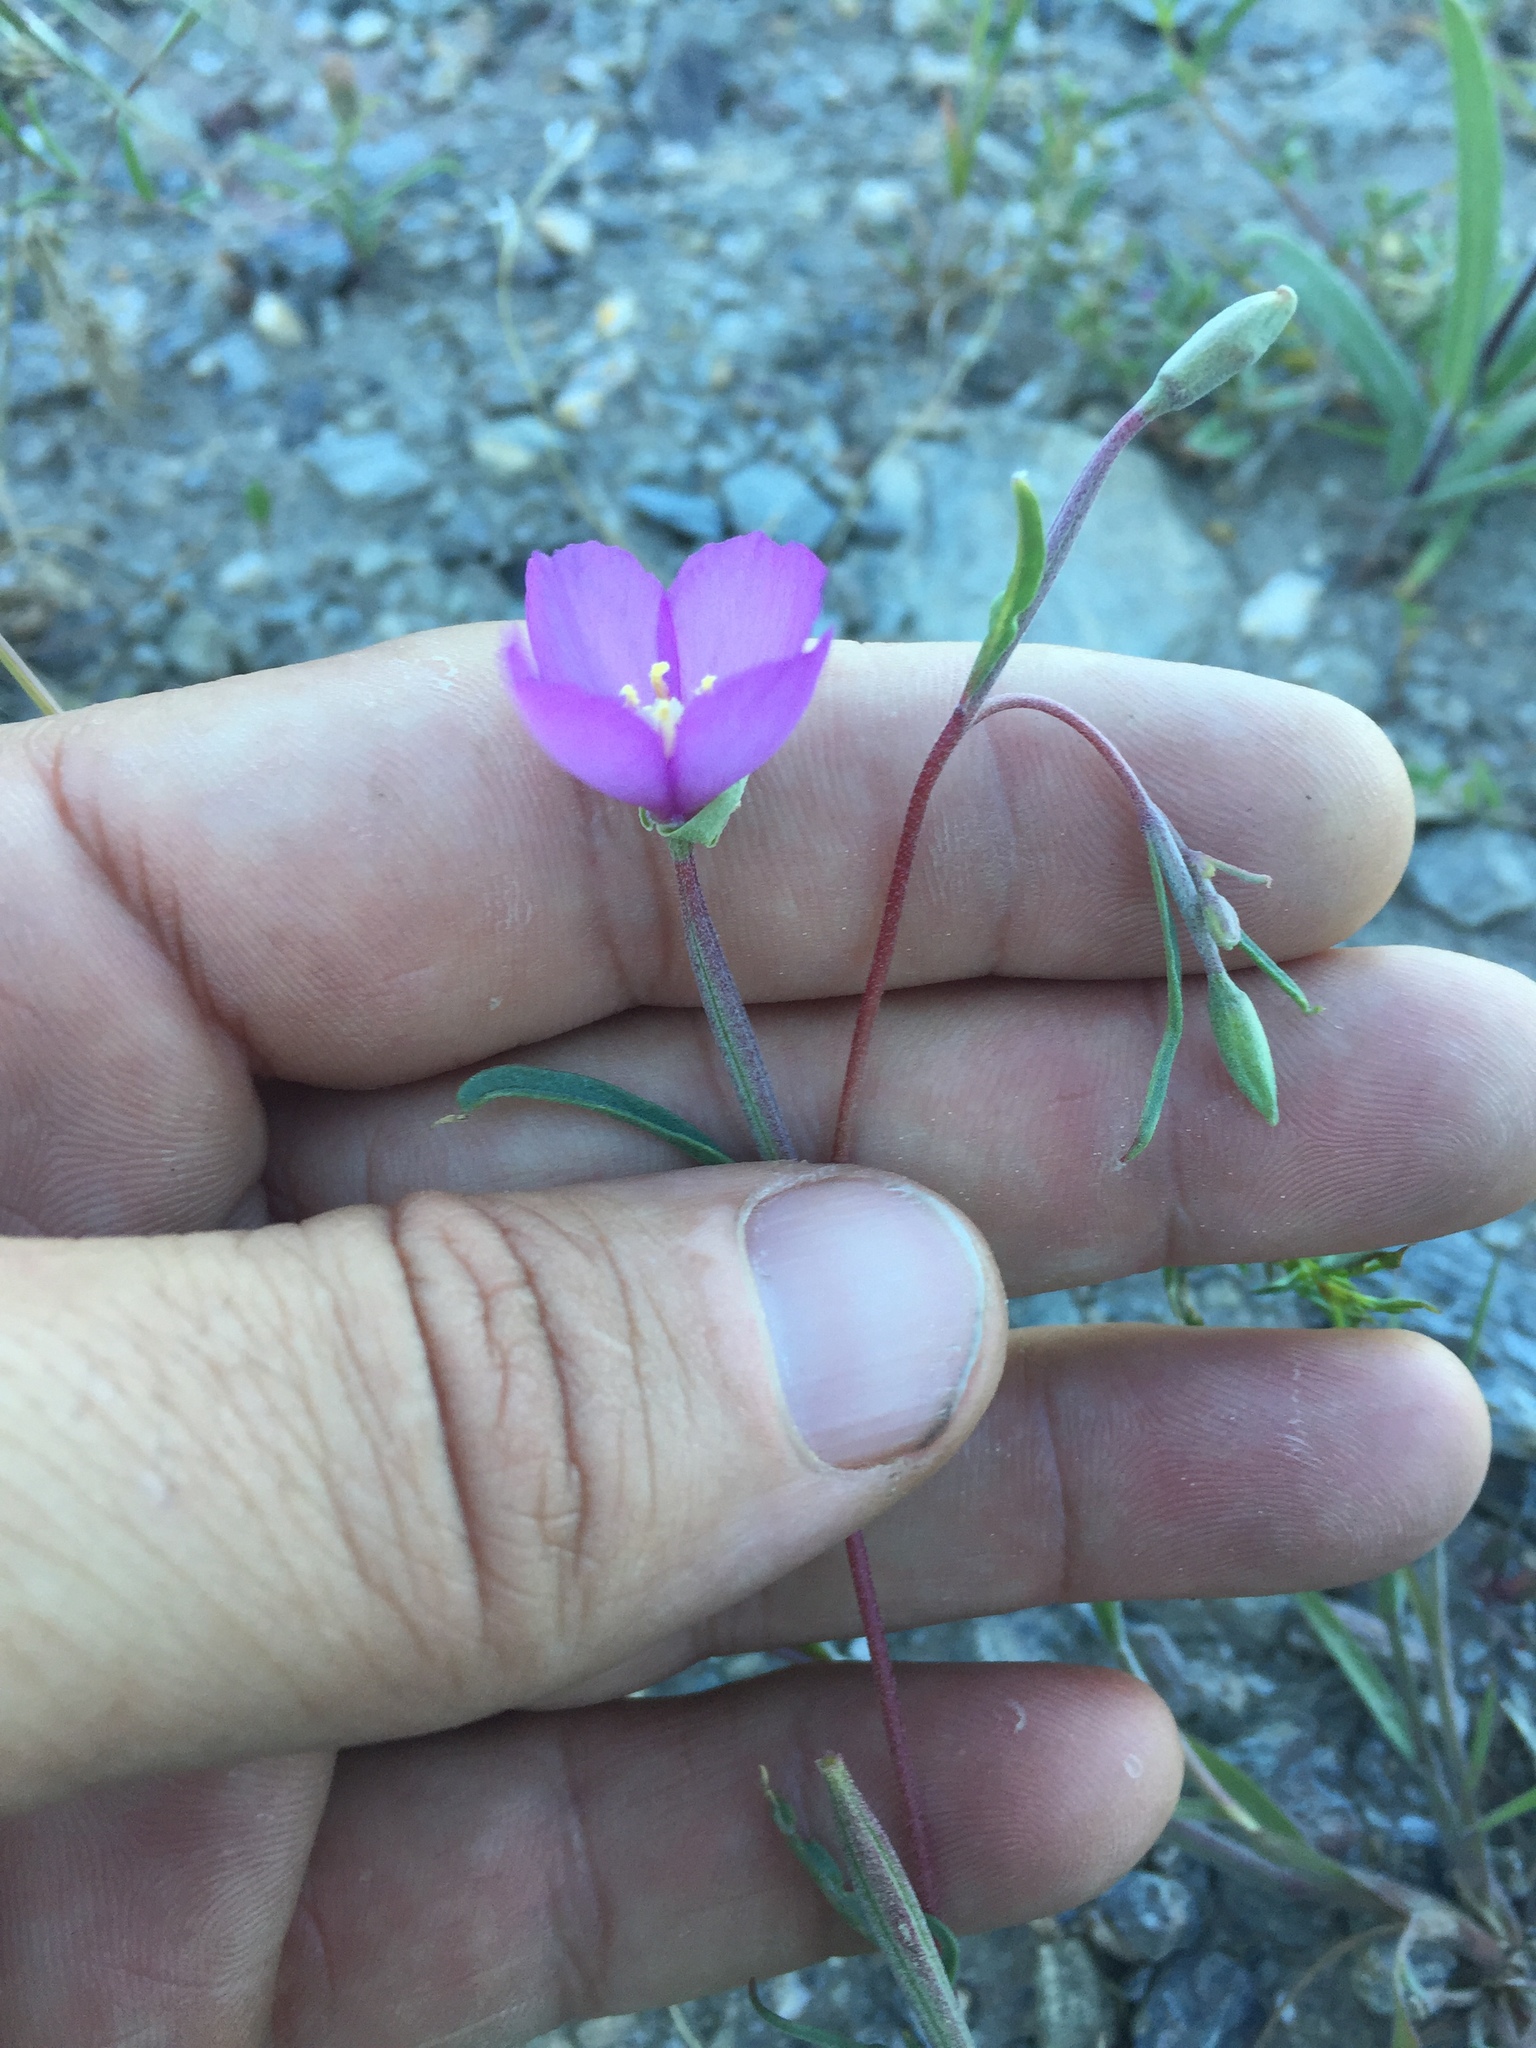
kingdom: Plantae
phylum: Tracheophyta
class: Magnoliopsida
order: Myrtales
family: Onagraceae
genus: Clarkia
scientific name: Clarkia gracilis
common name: Graceful clarkia
